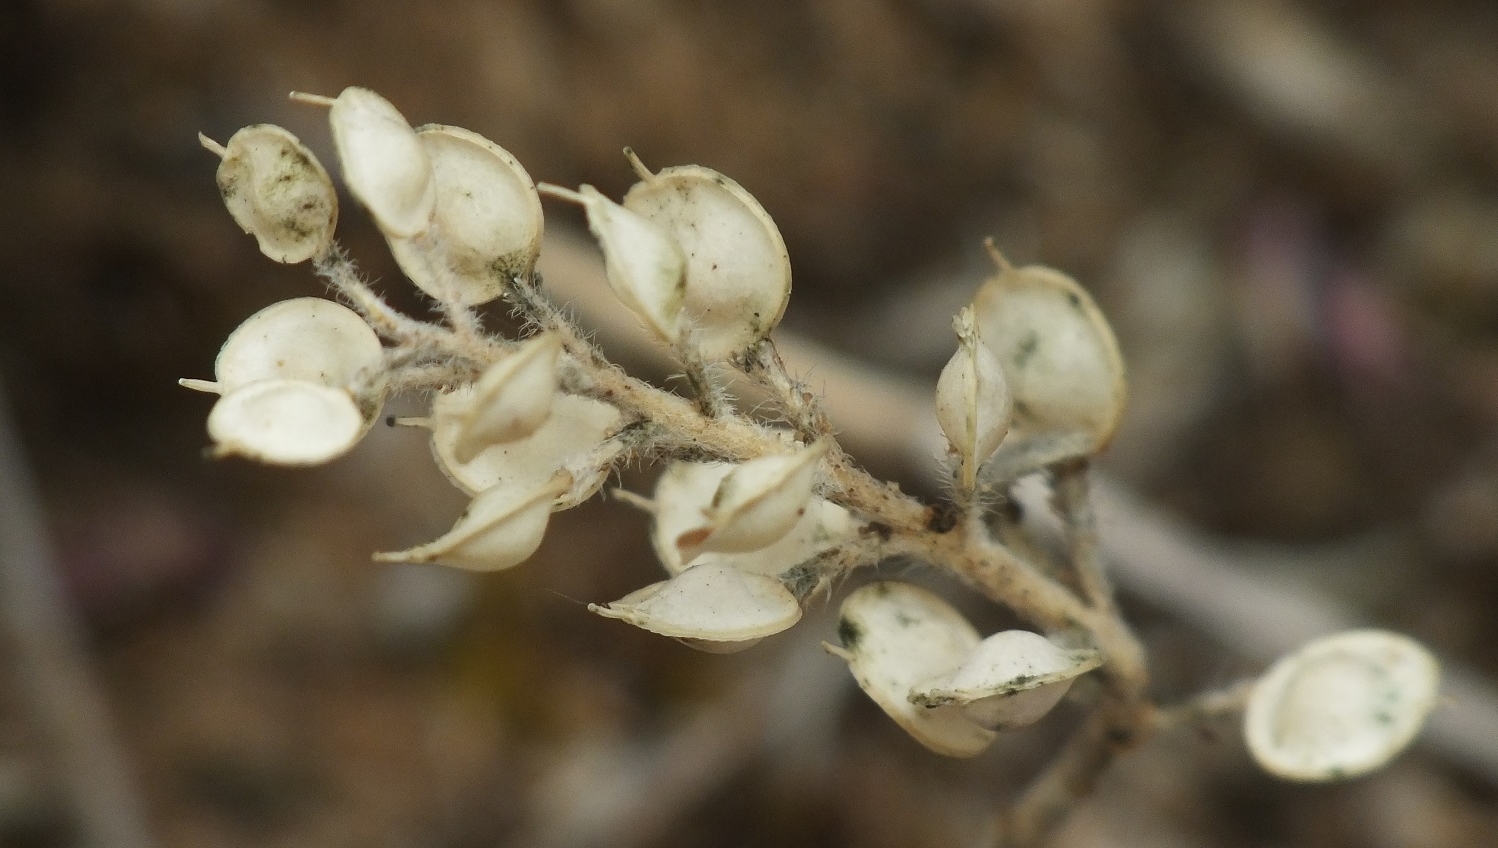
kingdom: Plantae
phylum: Tracheophyta
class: Magnoliopsida
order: Brassicales
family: Brassicaceae
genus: Alyssum
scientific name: Alyssum turkestanicum
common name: Desert alyssum
